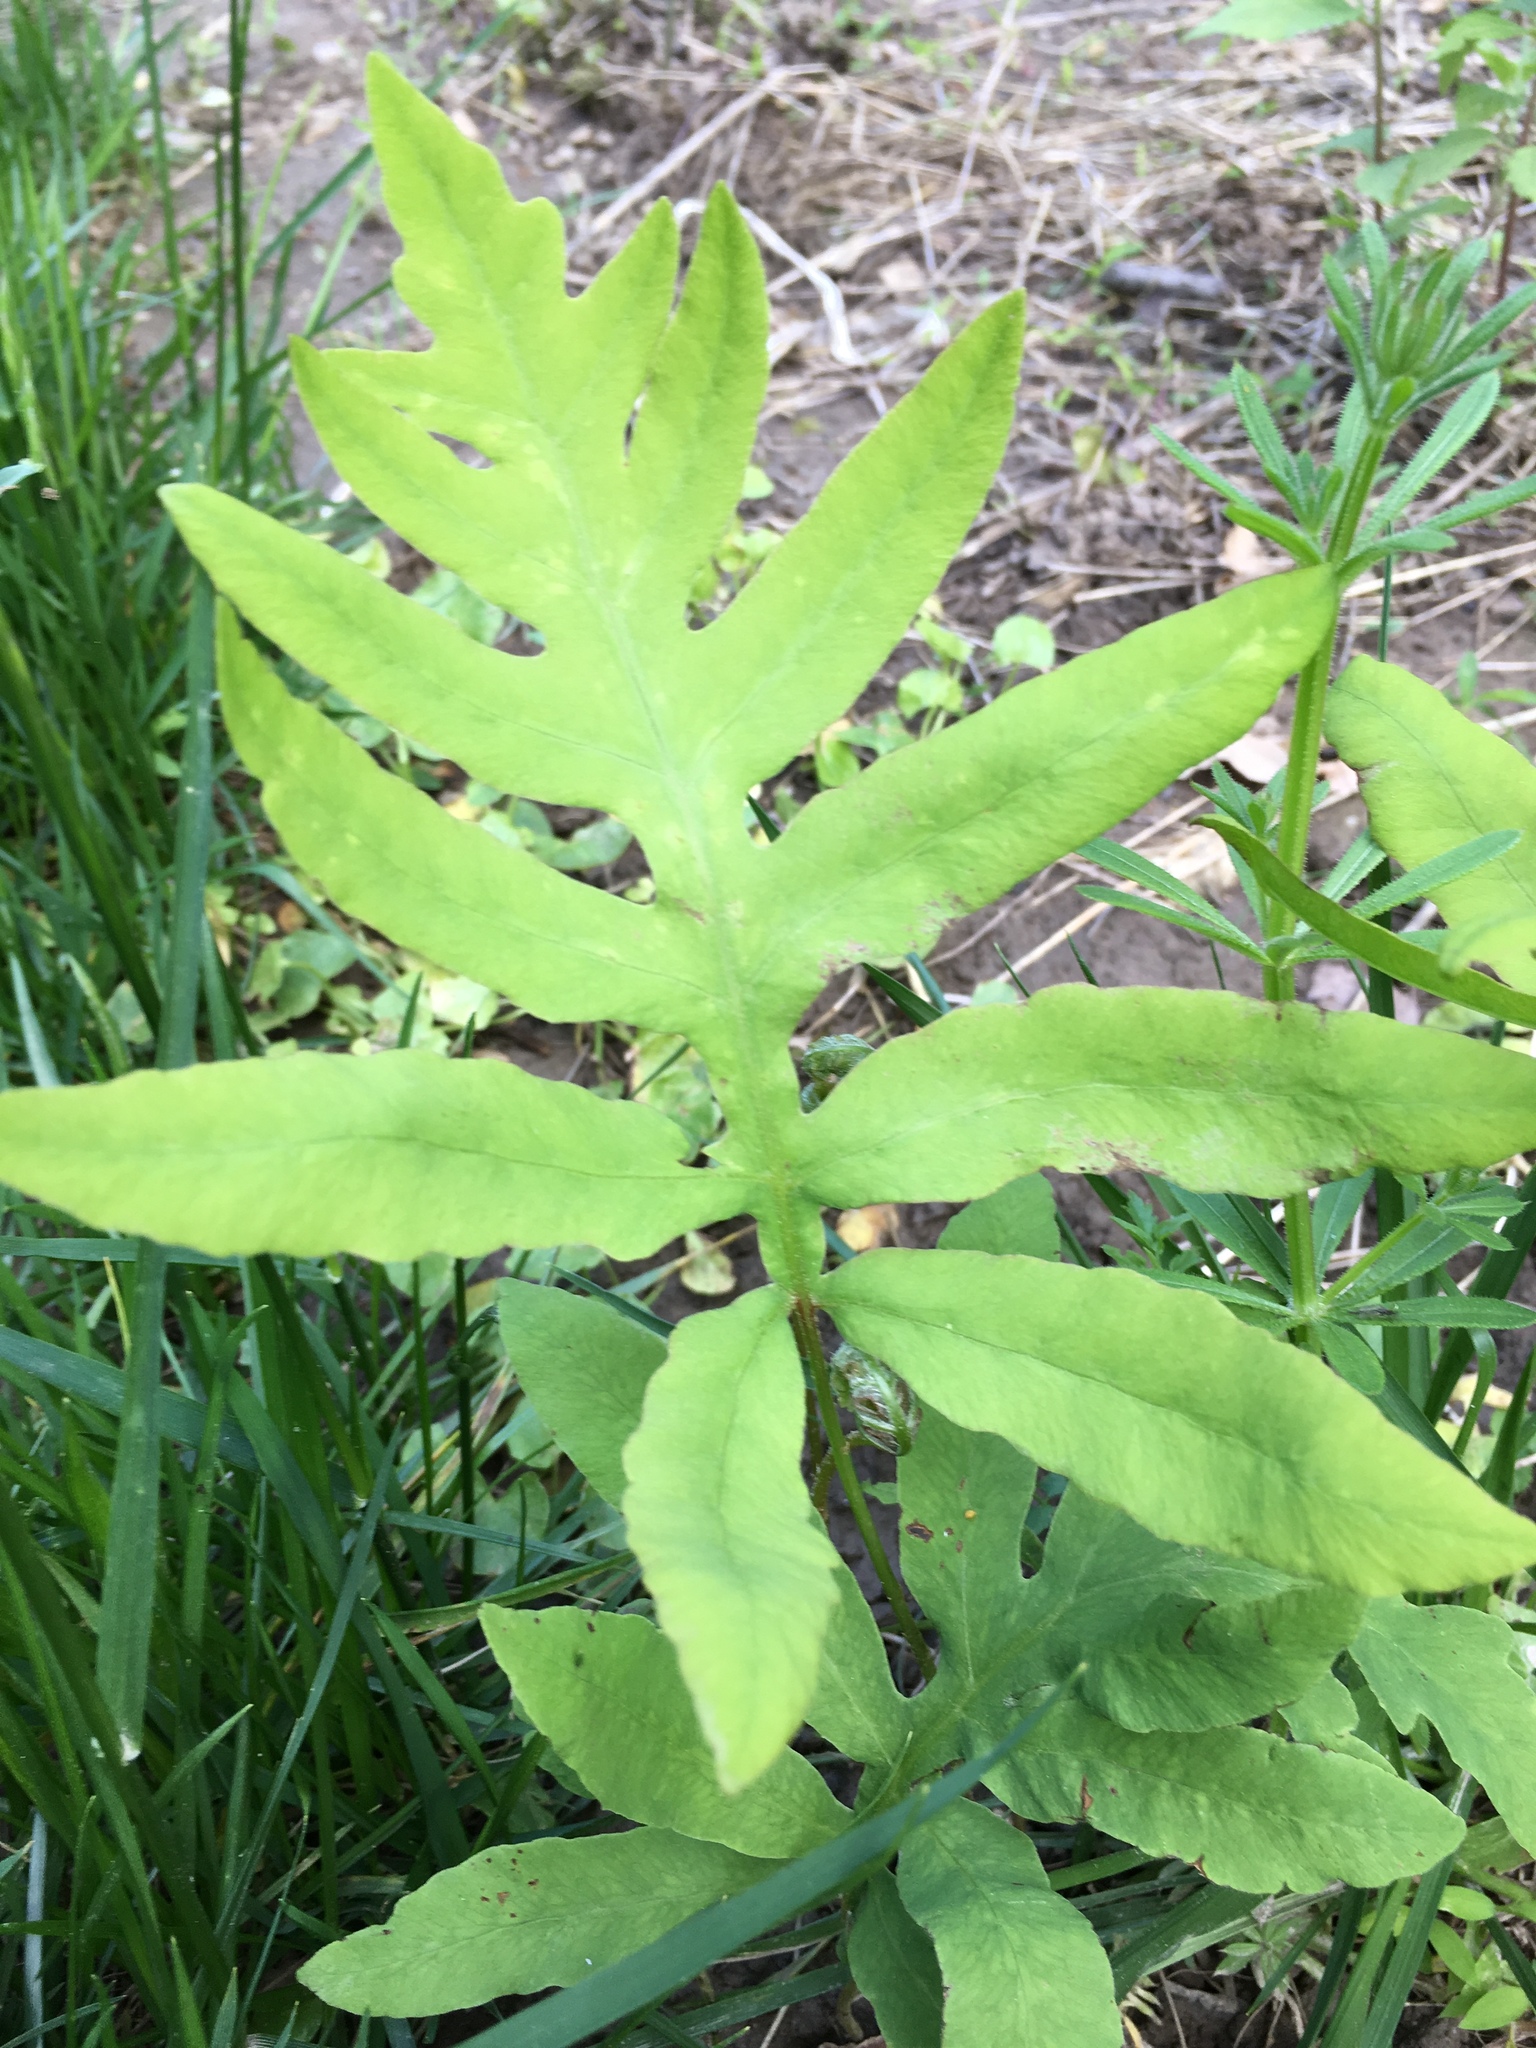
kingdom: Plantae
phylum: Tracheophyta
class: Polypodiopsida
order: Polypodiales
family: Onocleaceae
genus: Onoclea
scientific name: Onoclea sensibilis
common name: Sensitive fern
